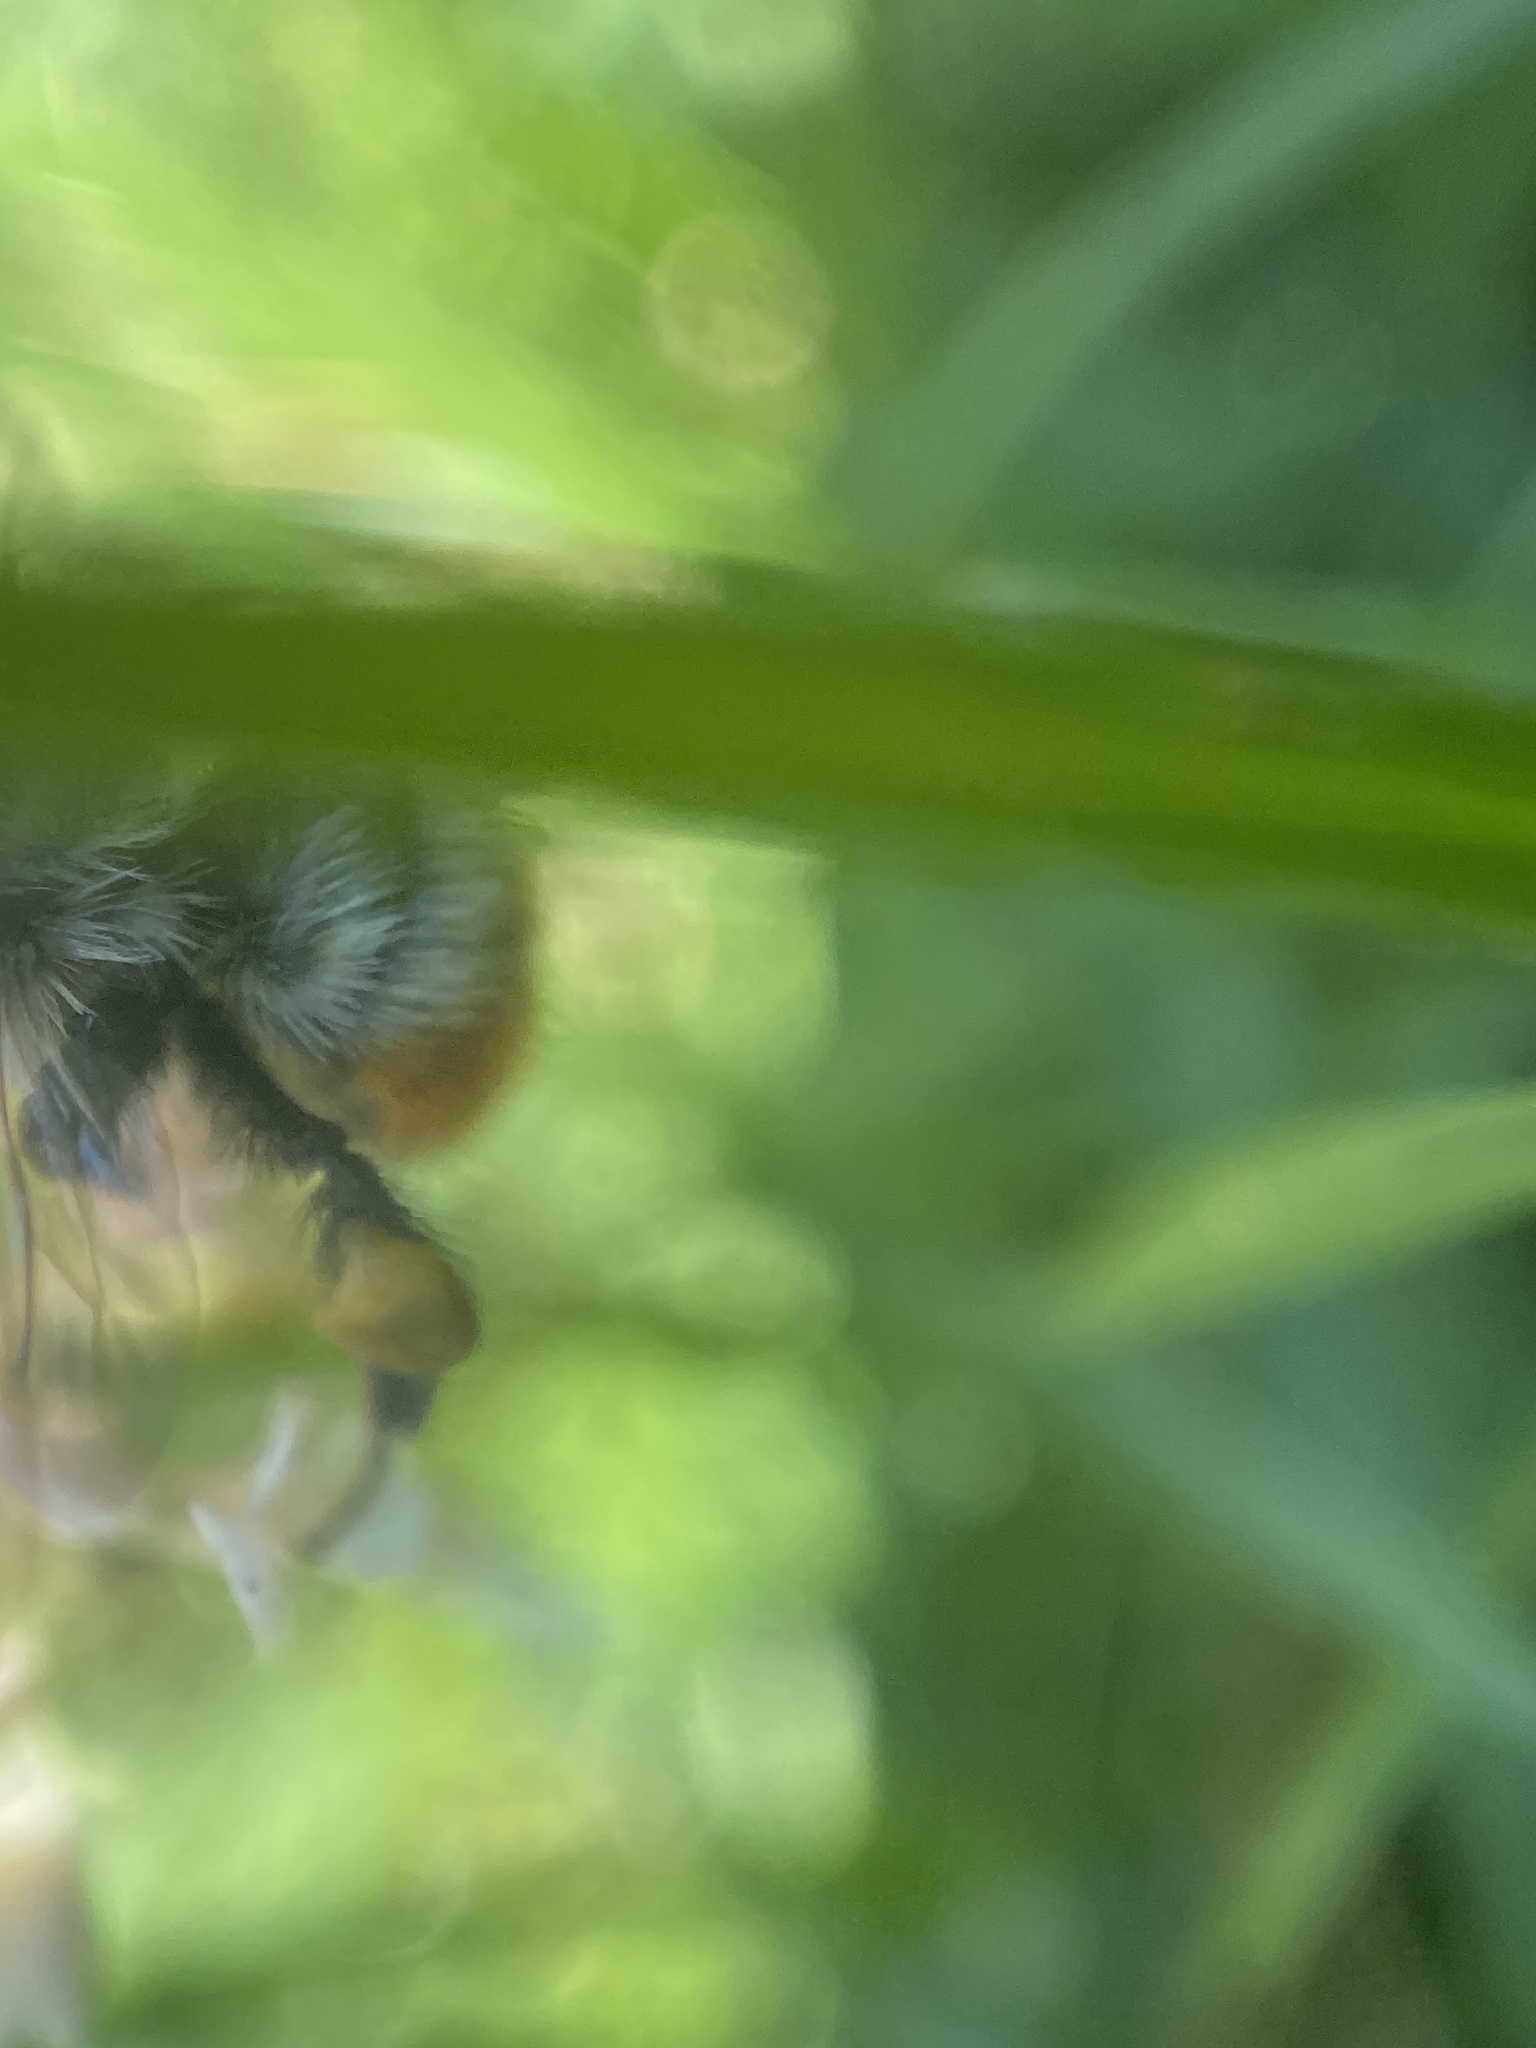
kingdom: Animalia
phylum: Arthropoda
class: Insecta
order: Hymenoptera
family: Apidae
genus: Bombus
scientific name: Bombus rufocinctus
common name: Red-belted bumble bee
